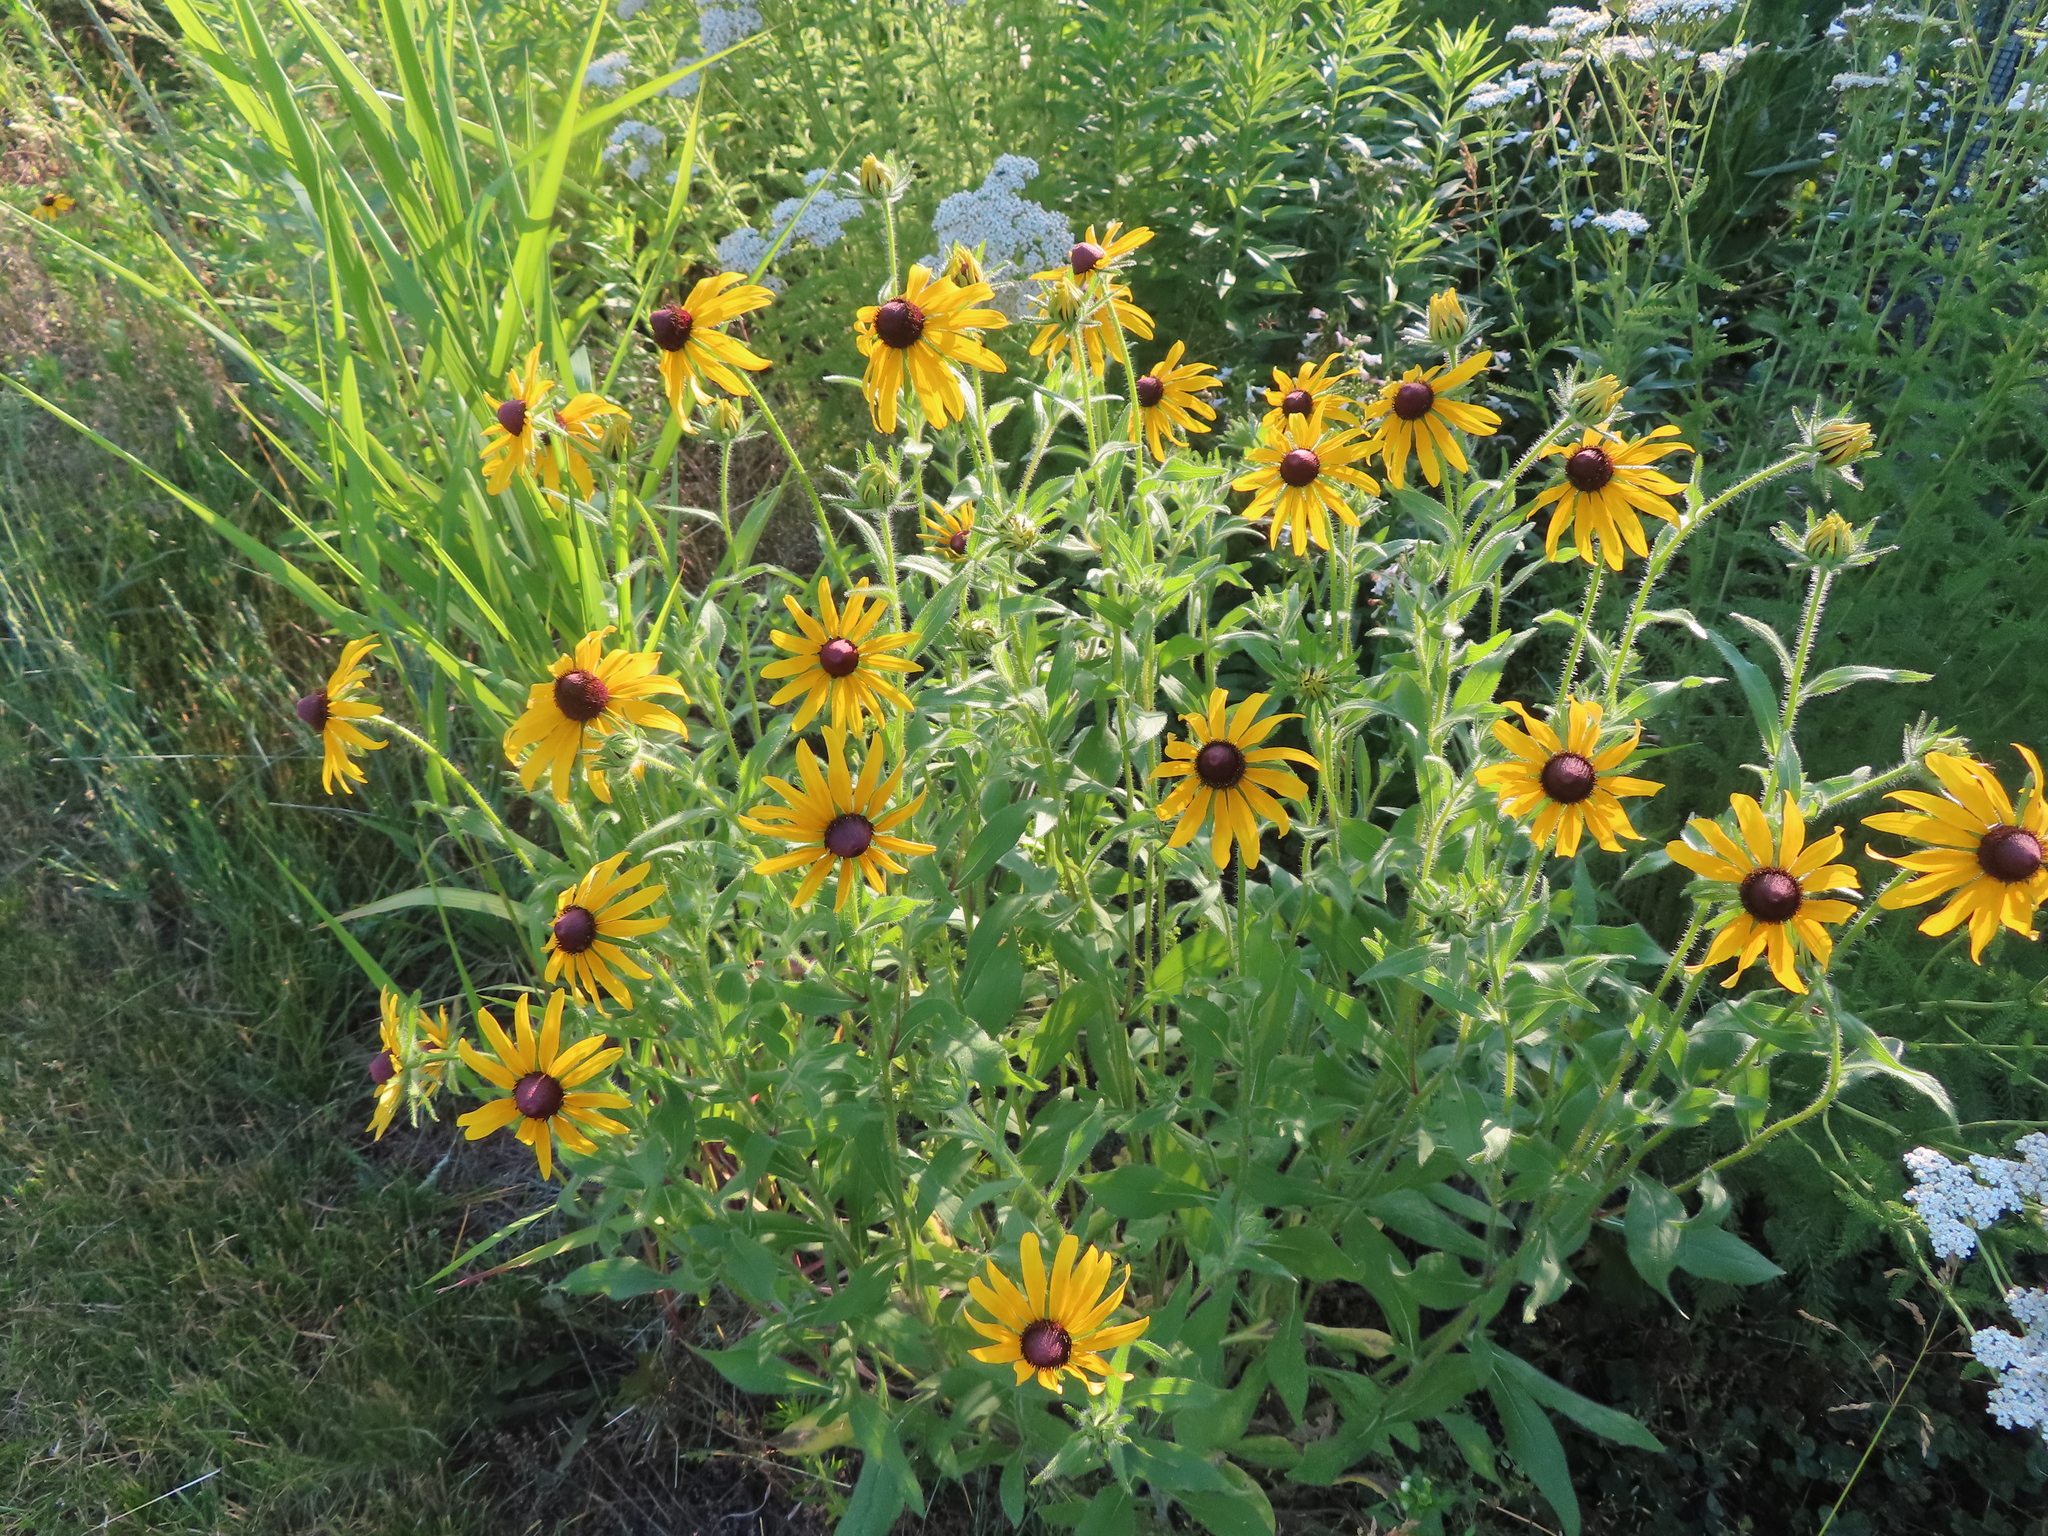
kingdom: Plantae
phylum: Tracheophyta
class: Magnoliopsida
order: Asterales
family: Asteraceae
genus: Rudbeckia
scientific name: Rudbeckia hirta
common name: Black-eyed-susan
